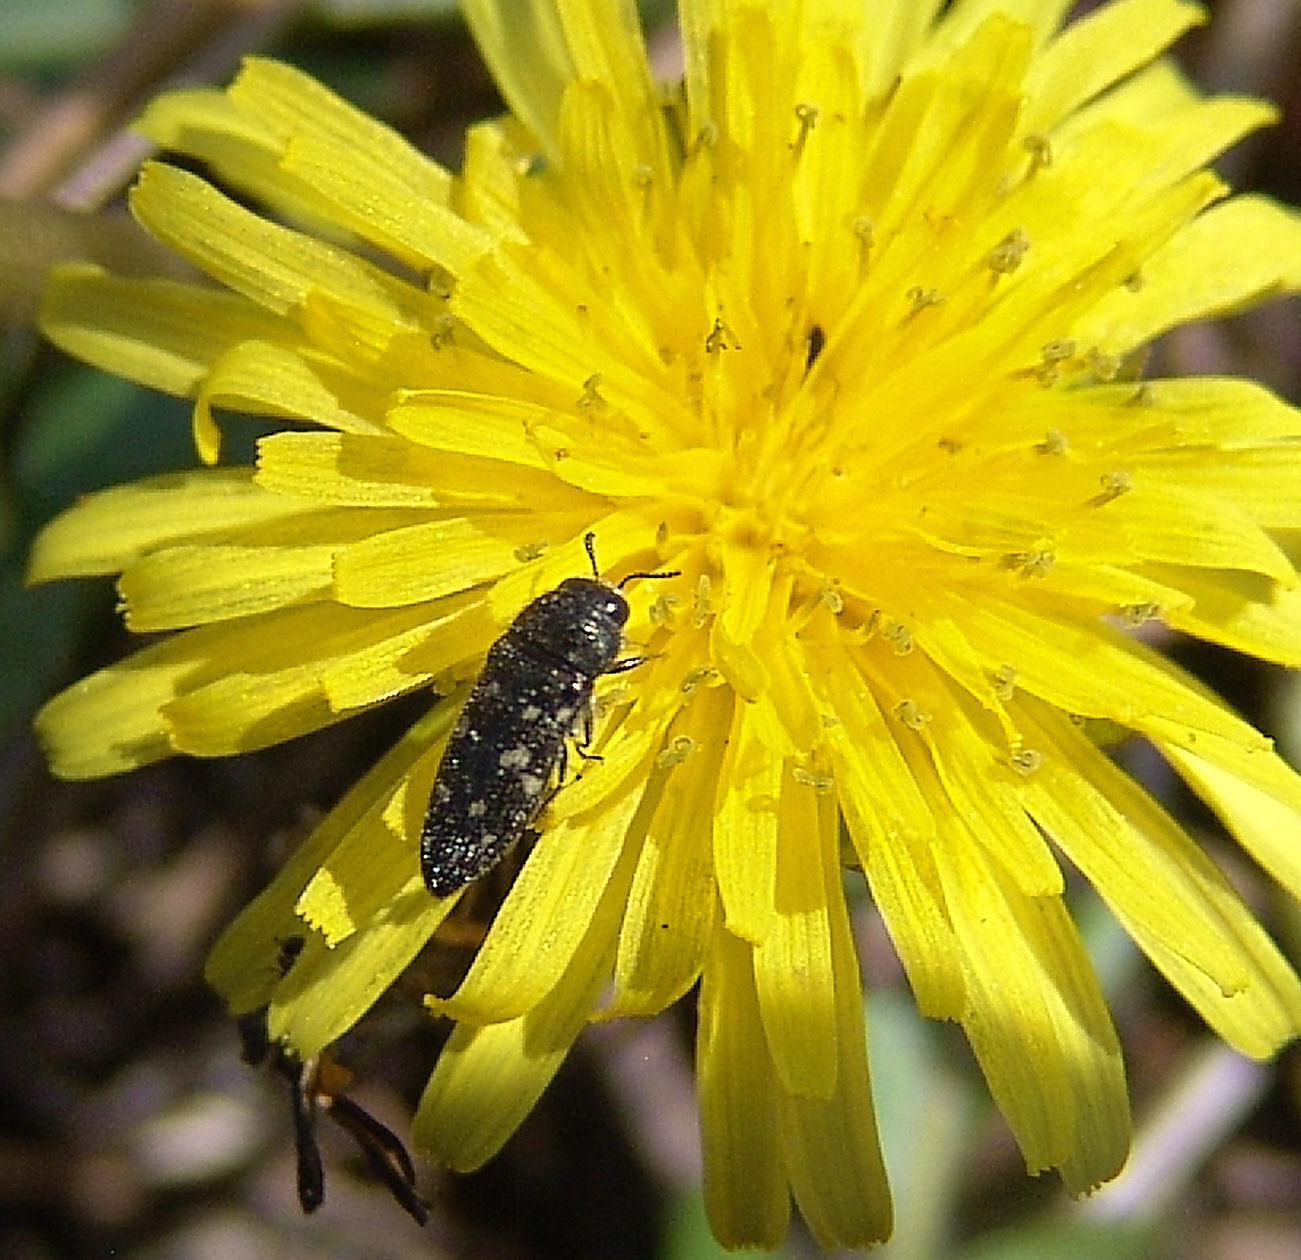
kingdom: Animalia
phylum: Arthropoda
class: Insecta
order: Coleoptera
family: Buprestidae
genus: Acmaeodera
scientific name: Acmaeodera tubulus
